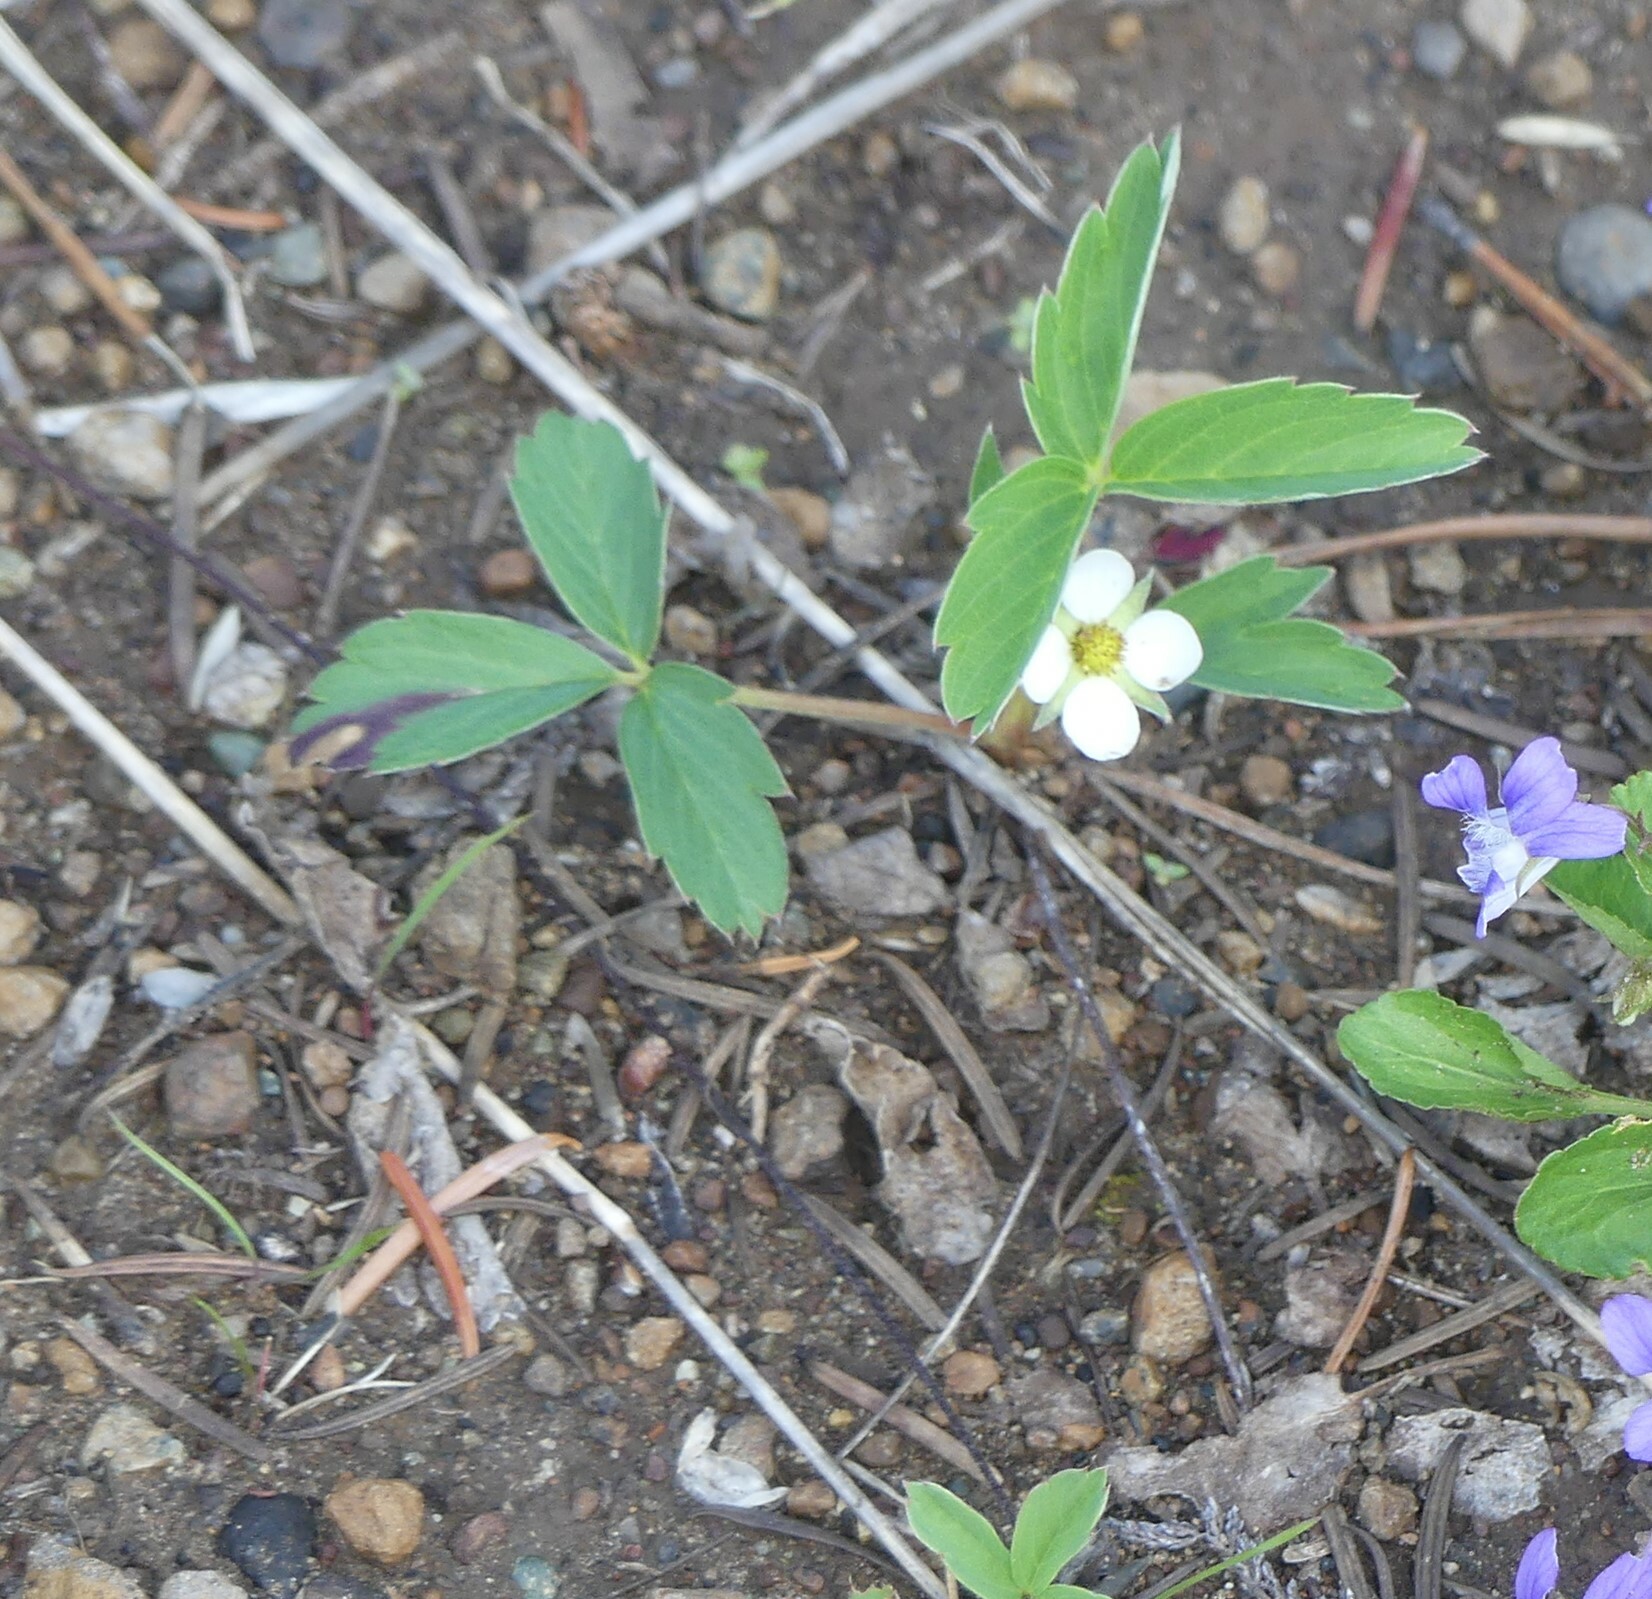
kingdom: Plantae
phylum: Tracheophyta
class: Magnoliopsida
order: Rosales
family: Rosaceae
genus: Fragaria
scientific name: Fragaria virginiana
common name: Thickleaved wild strawberry
